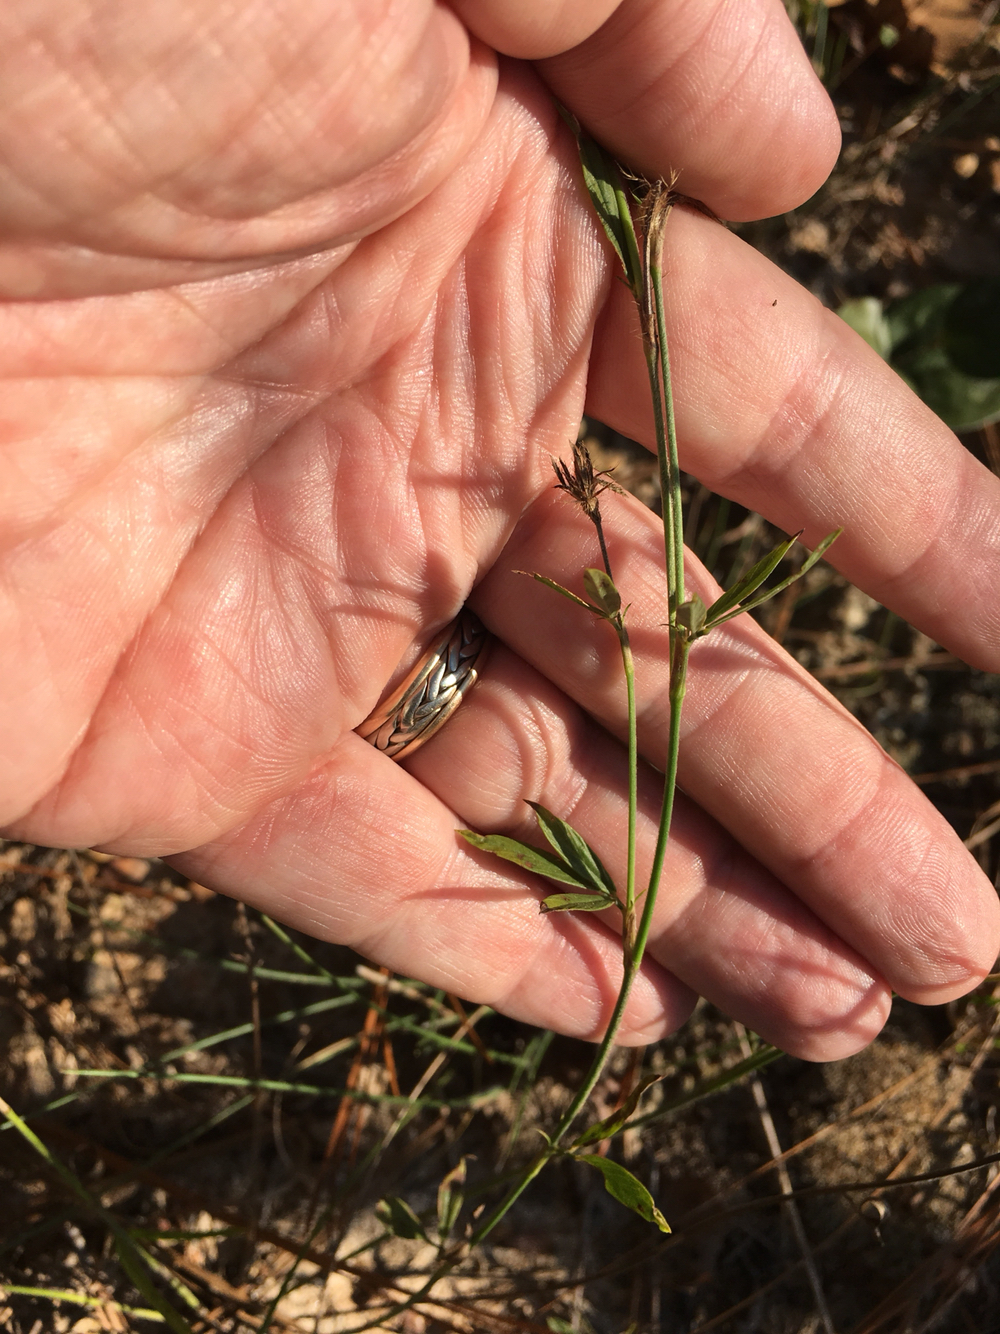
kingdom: Plantae
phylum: Tracheophyta
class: Magnoliopsida
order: Fabales
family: Fabaceae
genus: Stylosanthes
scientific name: Stylosanthes biflora
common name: Two-flower pencil-flower
